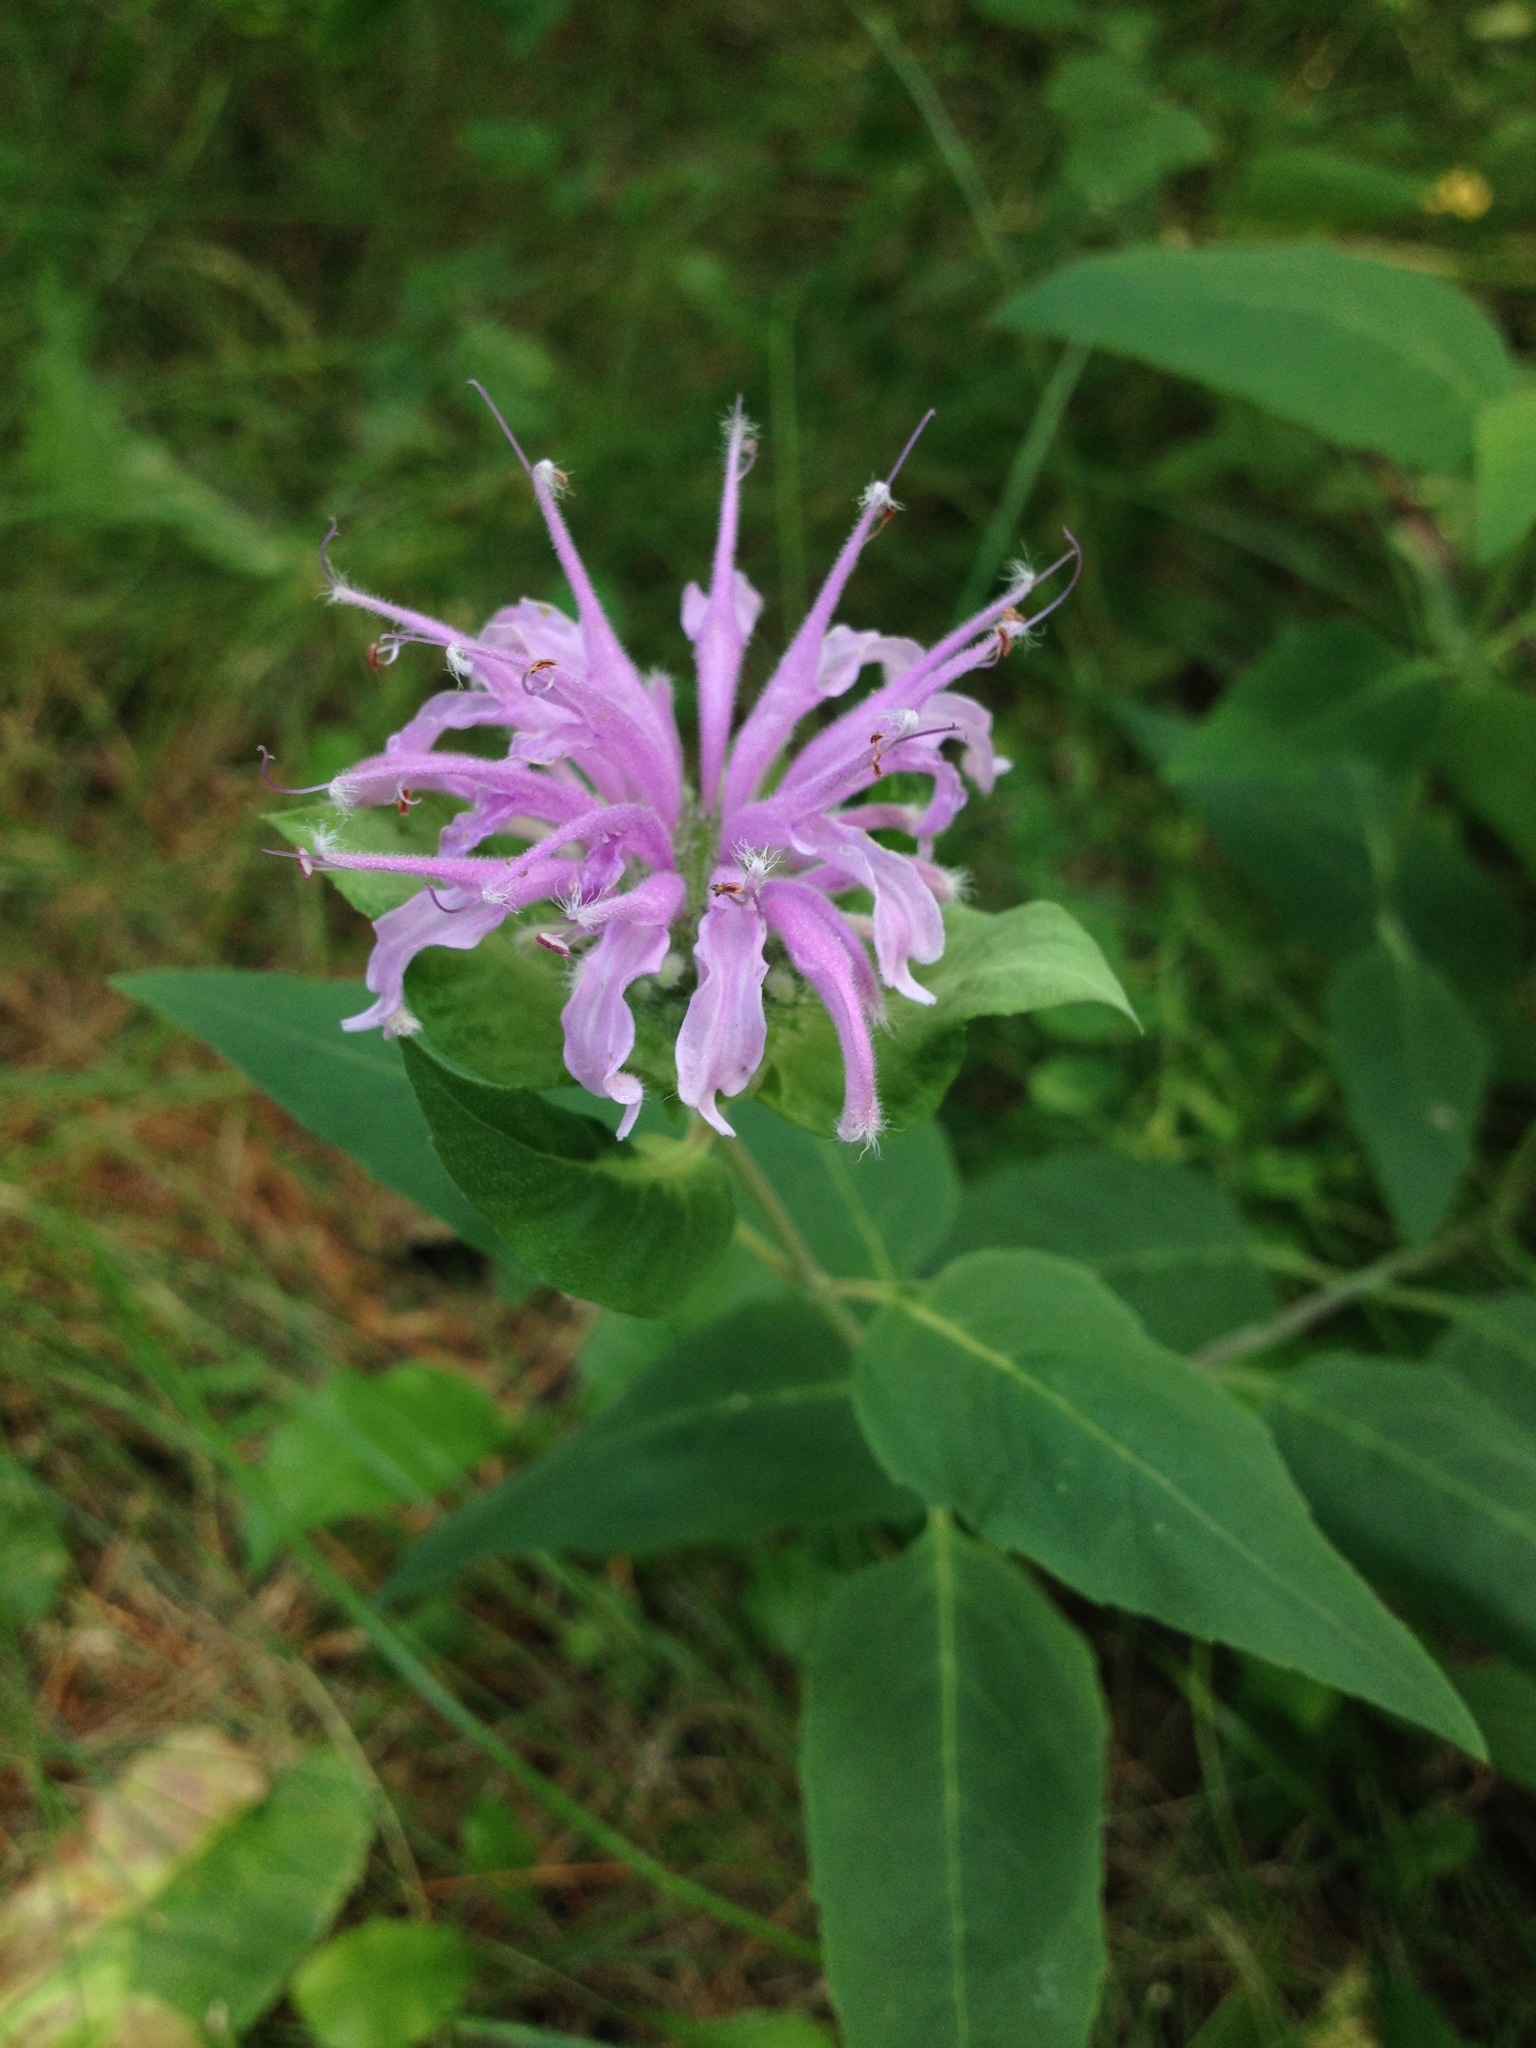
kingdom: Plantae
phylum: Tracheophyta
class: Magnoliopsida
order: Lamiales
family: Lamiaceae
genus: Monarda
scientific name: Monarda fistulosa
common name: Purple beebalm
